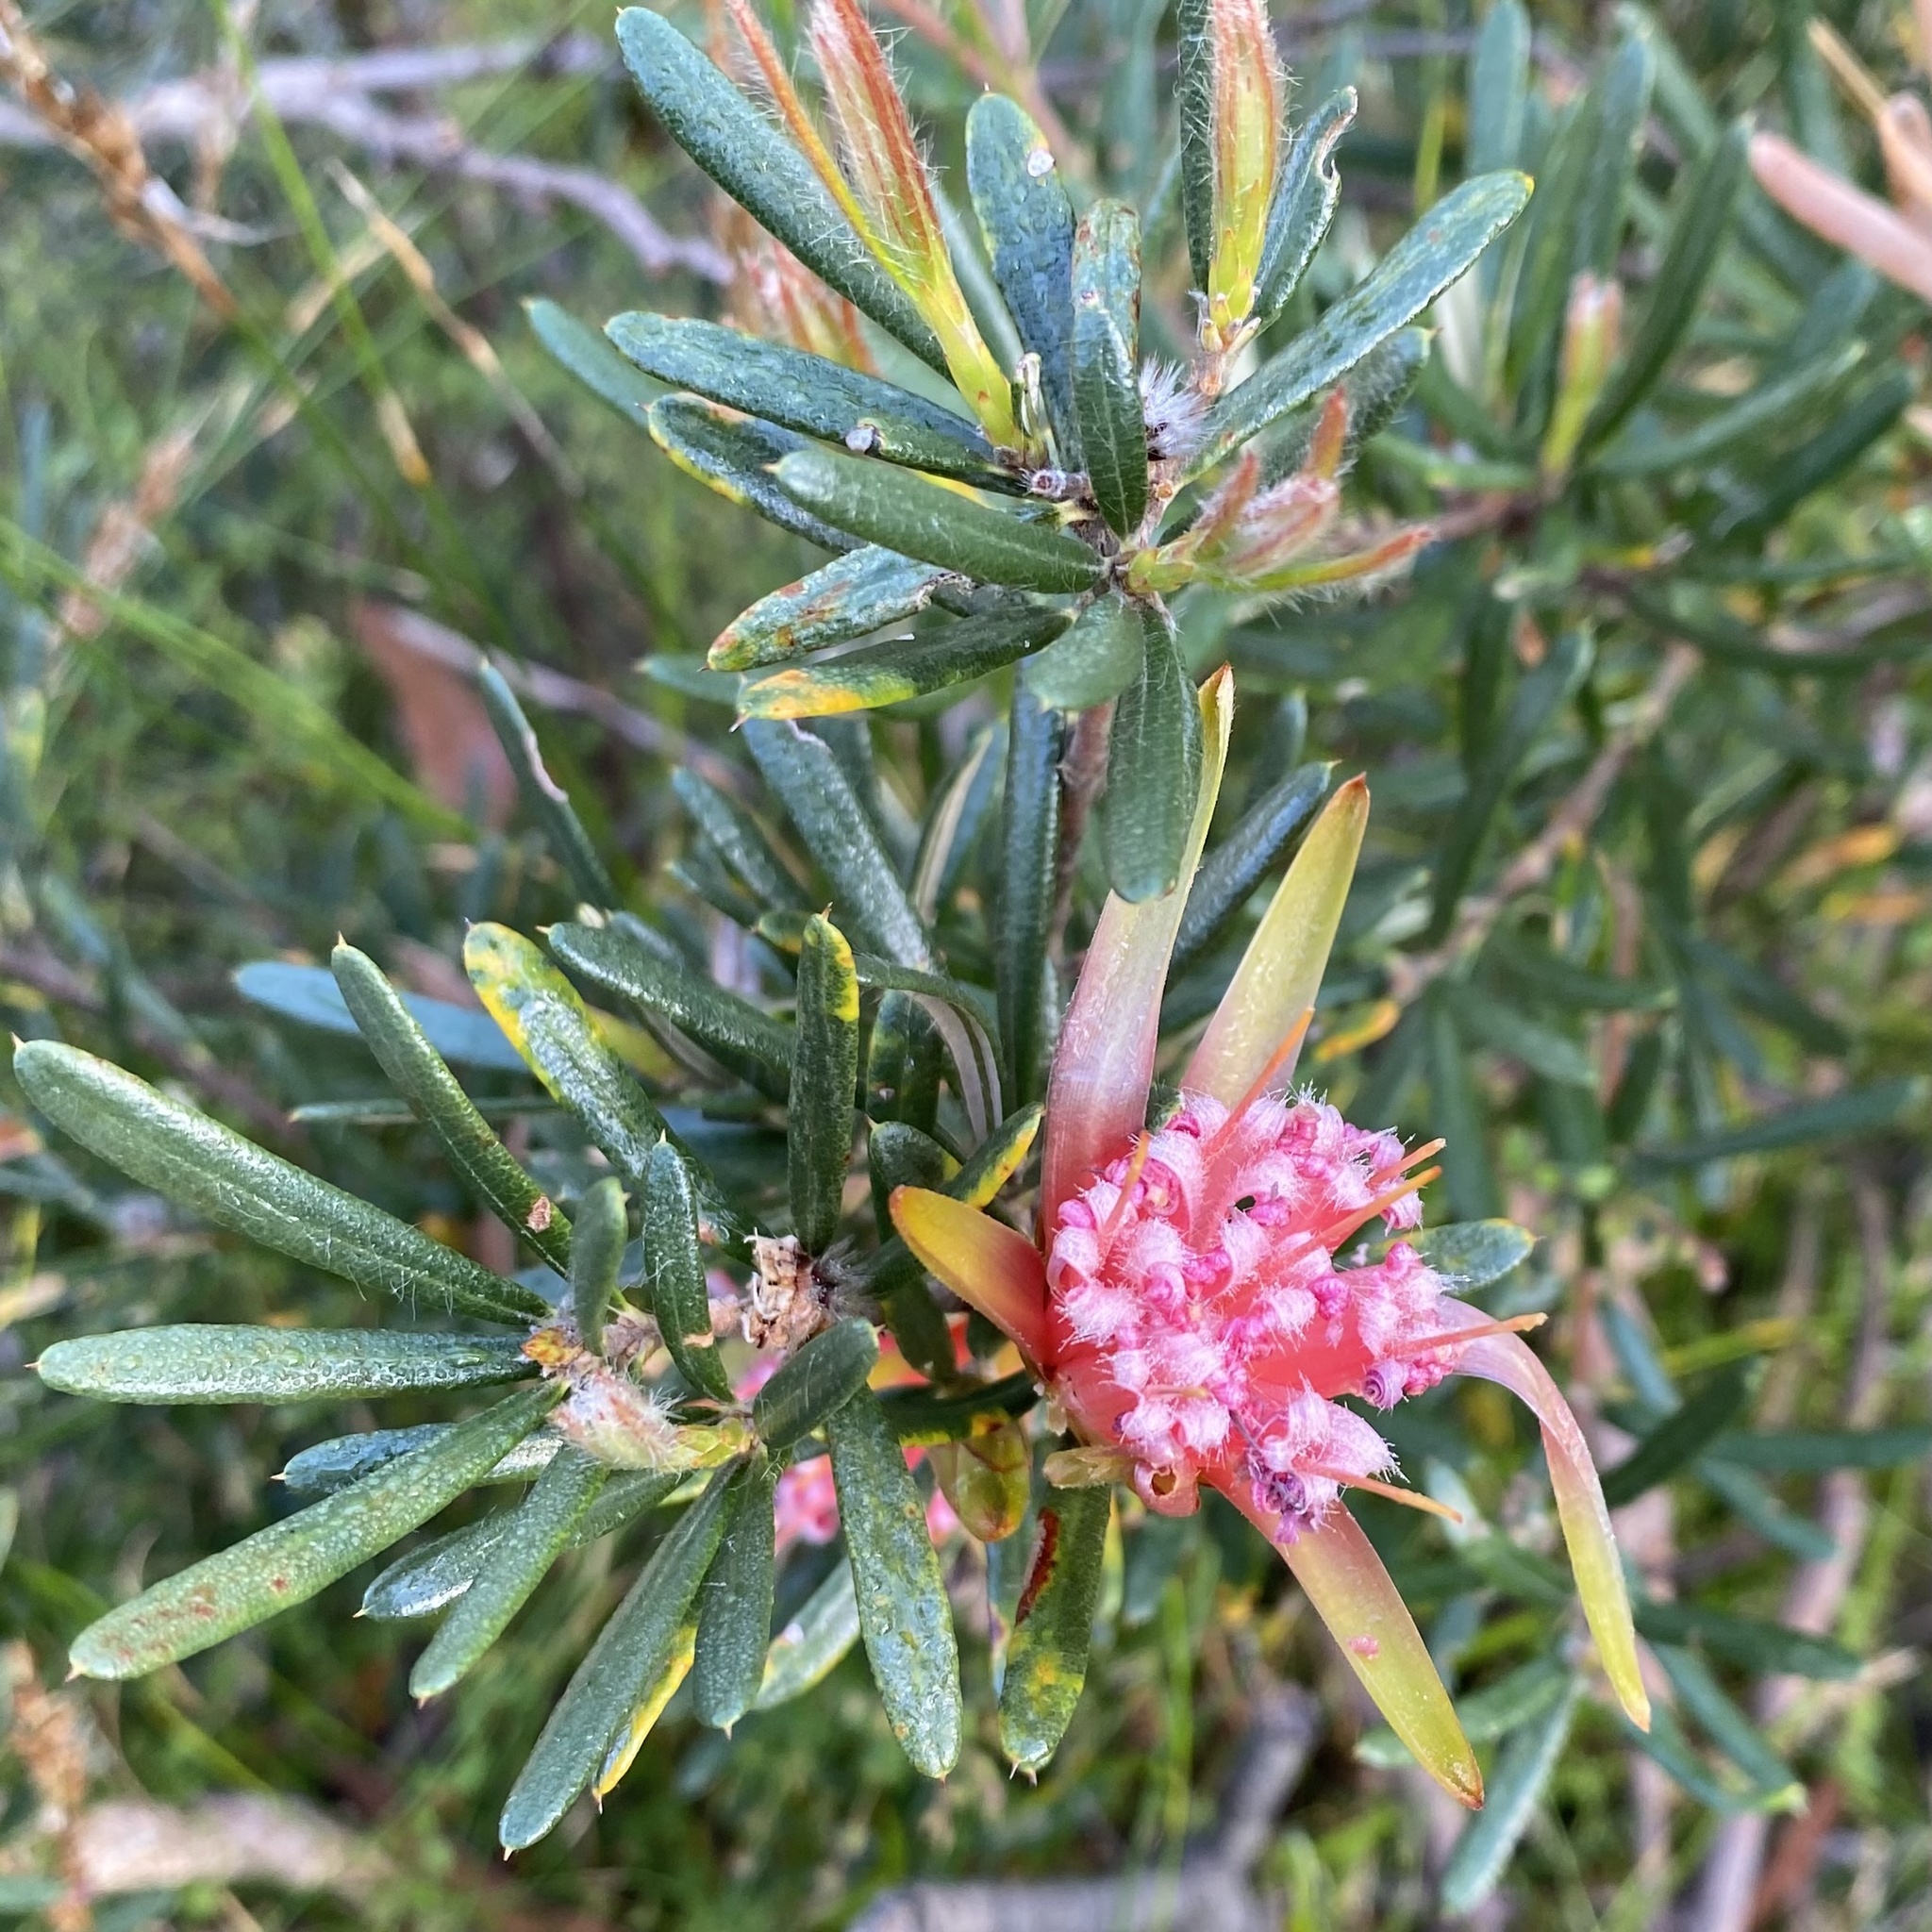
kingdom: Plantae
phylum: Tracheophyta
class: Magnoliopsida
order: Proteales
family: Proteaceae
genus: Lambertia
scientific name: Lambertia formosa
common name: Mountain-devil
